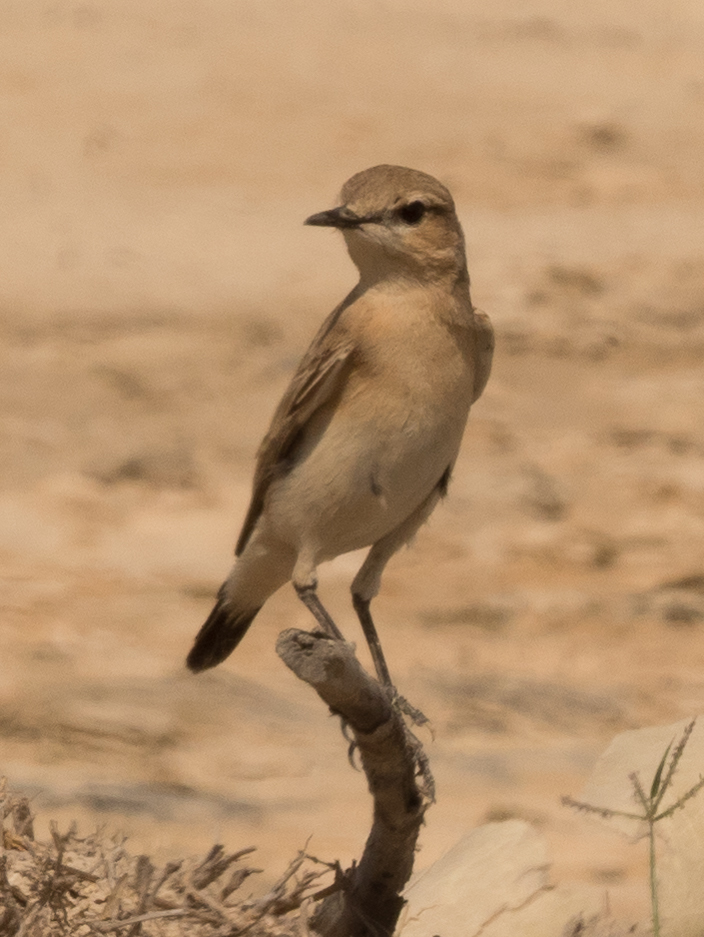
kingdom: Animalia
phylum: Chordata
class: Aves
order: Passeriformes
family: Muscicapidae
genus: Oenanthe
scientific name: Oenanthe isabellina
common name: Isabelline wheatear
